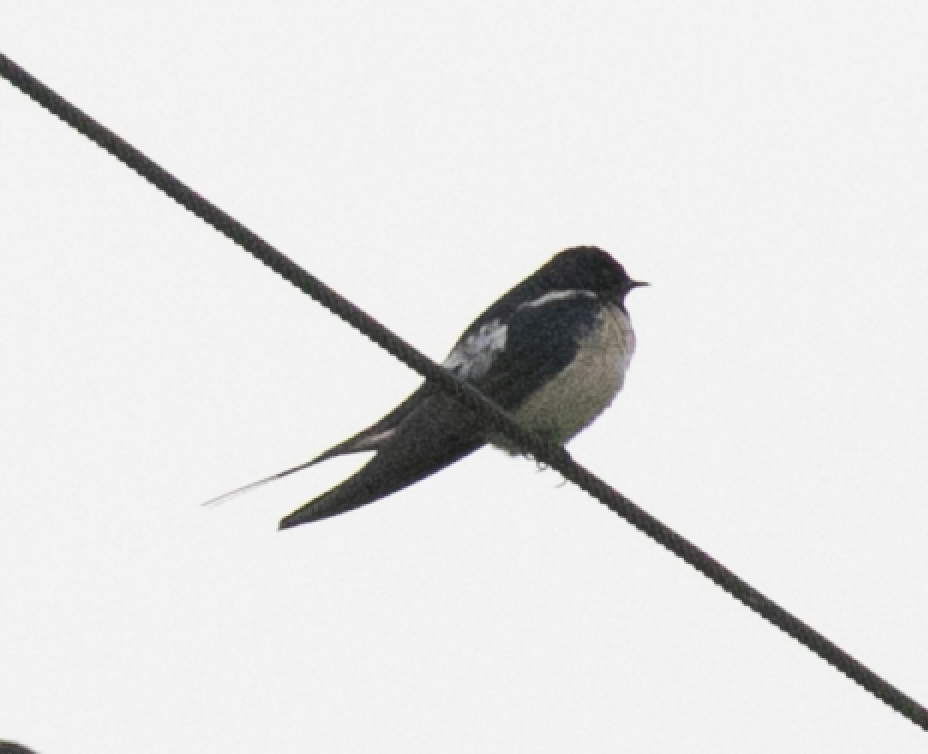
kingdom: Animalia
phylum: Chordata
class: Aves
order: Passeriformes
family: Hirundinidae
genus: Hirundo
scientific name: Hirundo rustica
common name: Barn swallow
